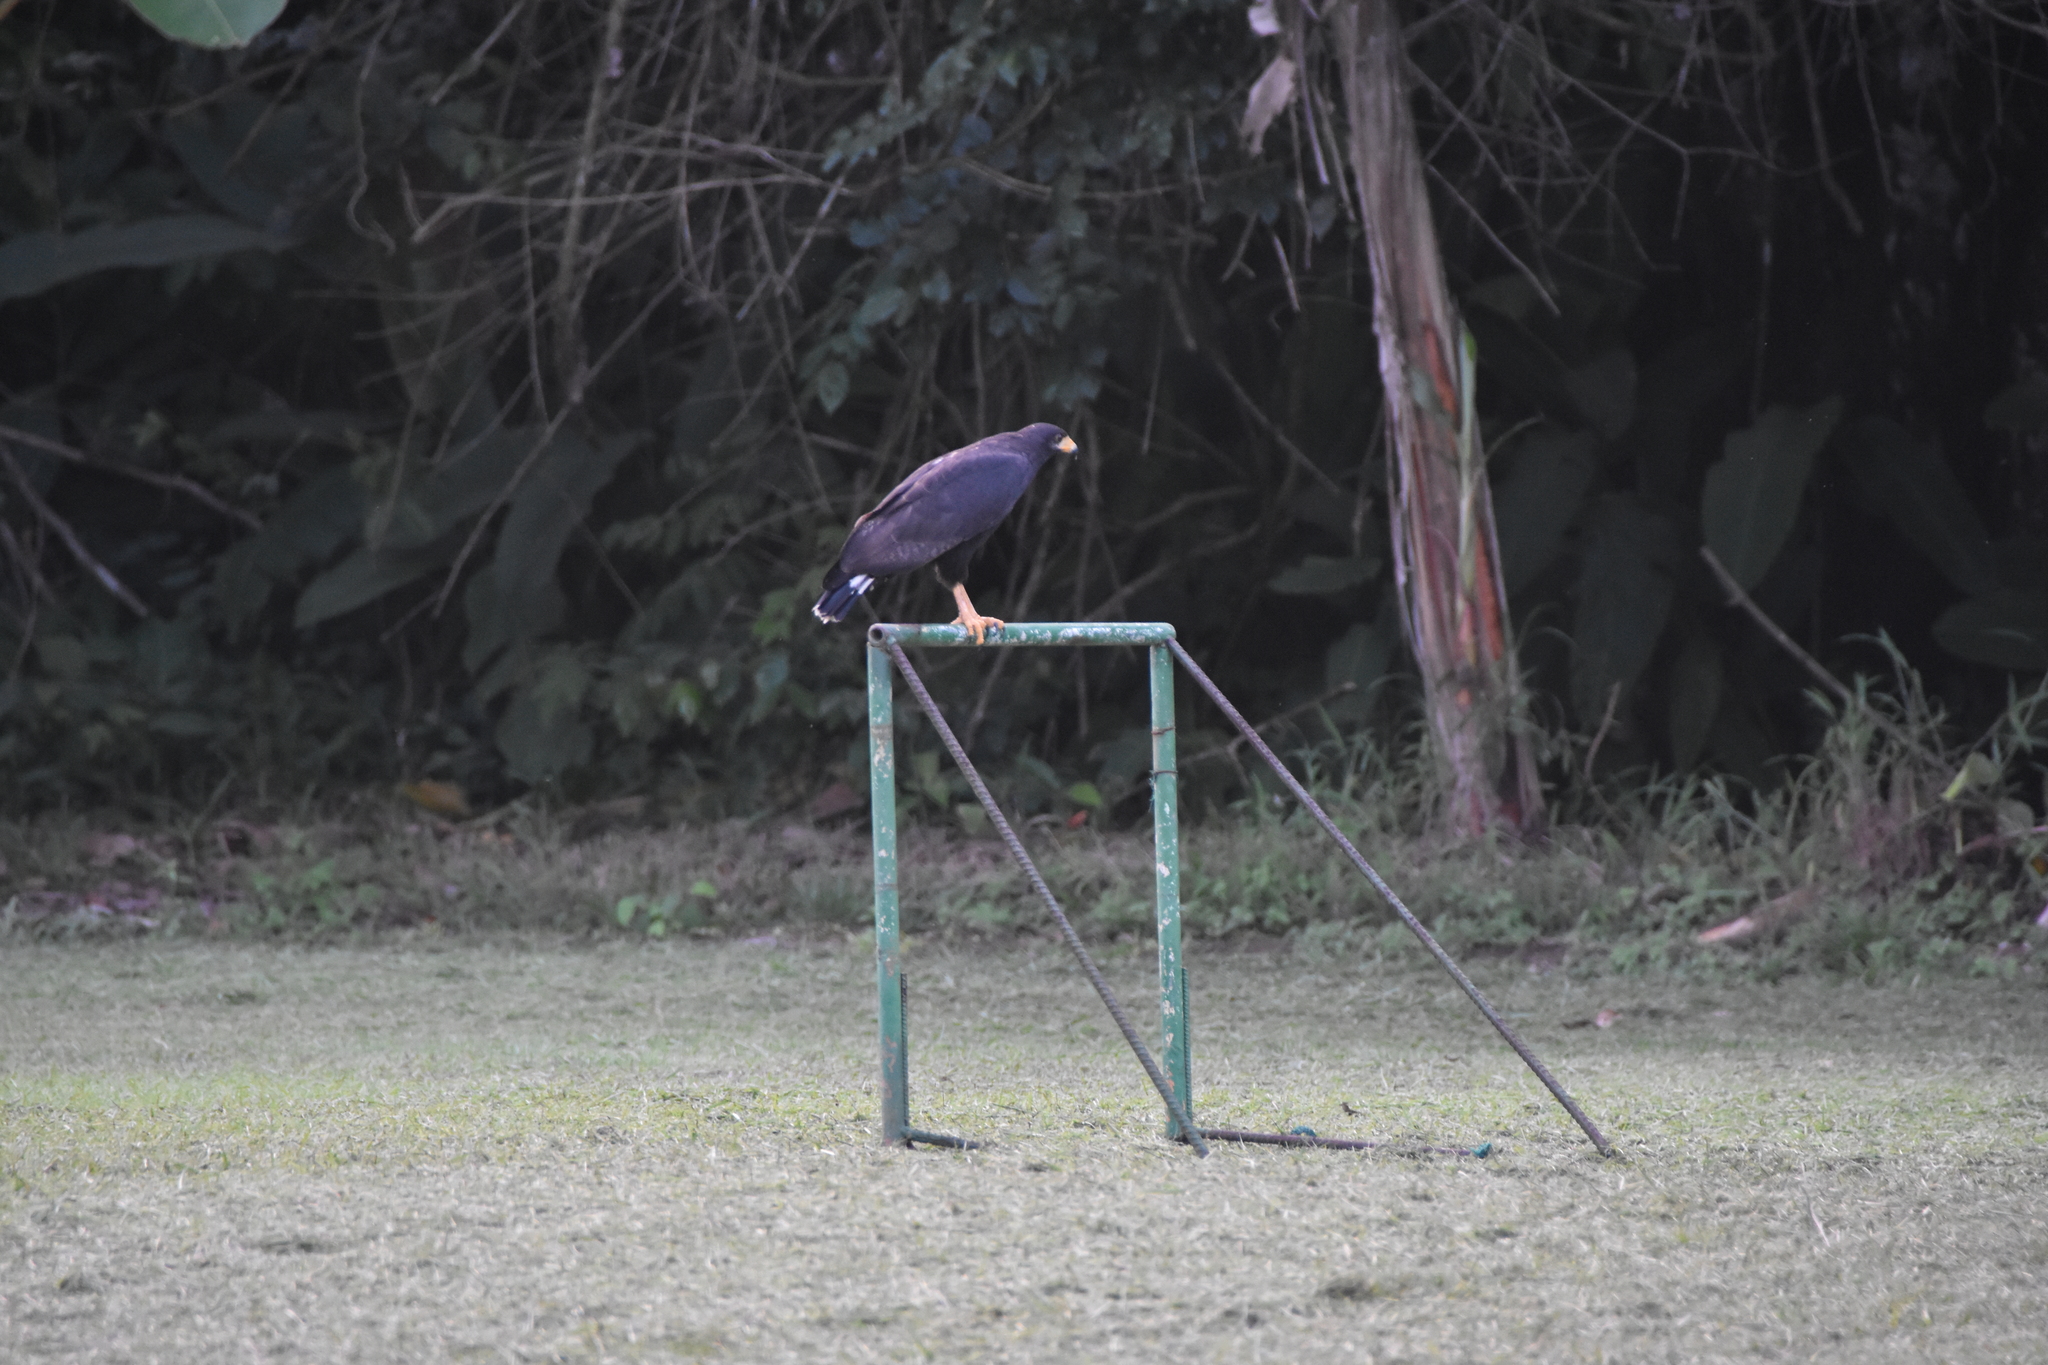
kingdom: Animalia
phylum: Chordata
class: Aves
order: Accipitriformes
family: Accipitridae
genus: Buteogallus
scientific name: Buteogallus anthracinus
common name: Common black hawk
